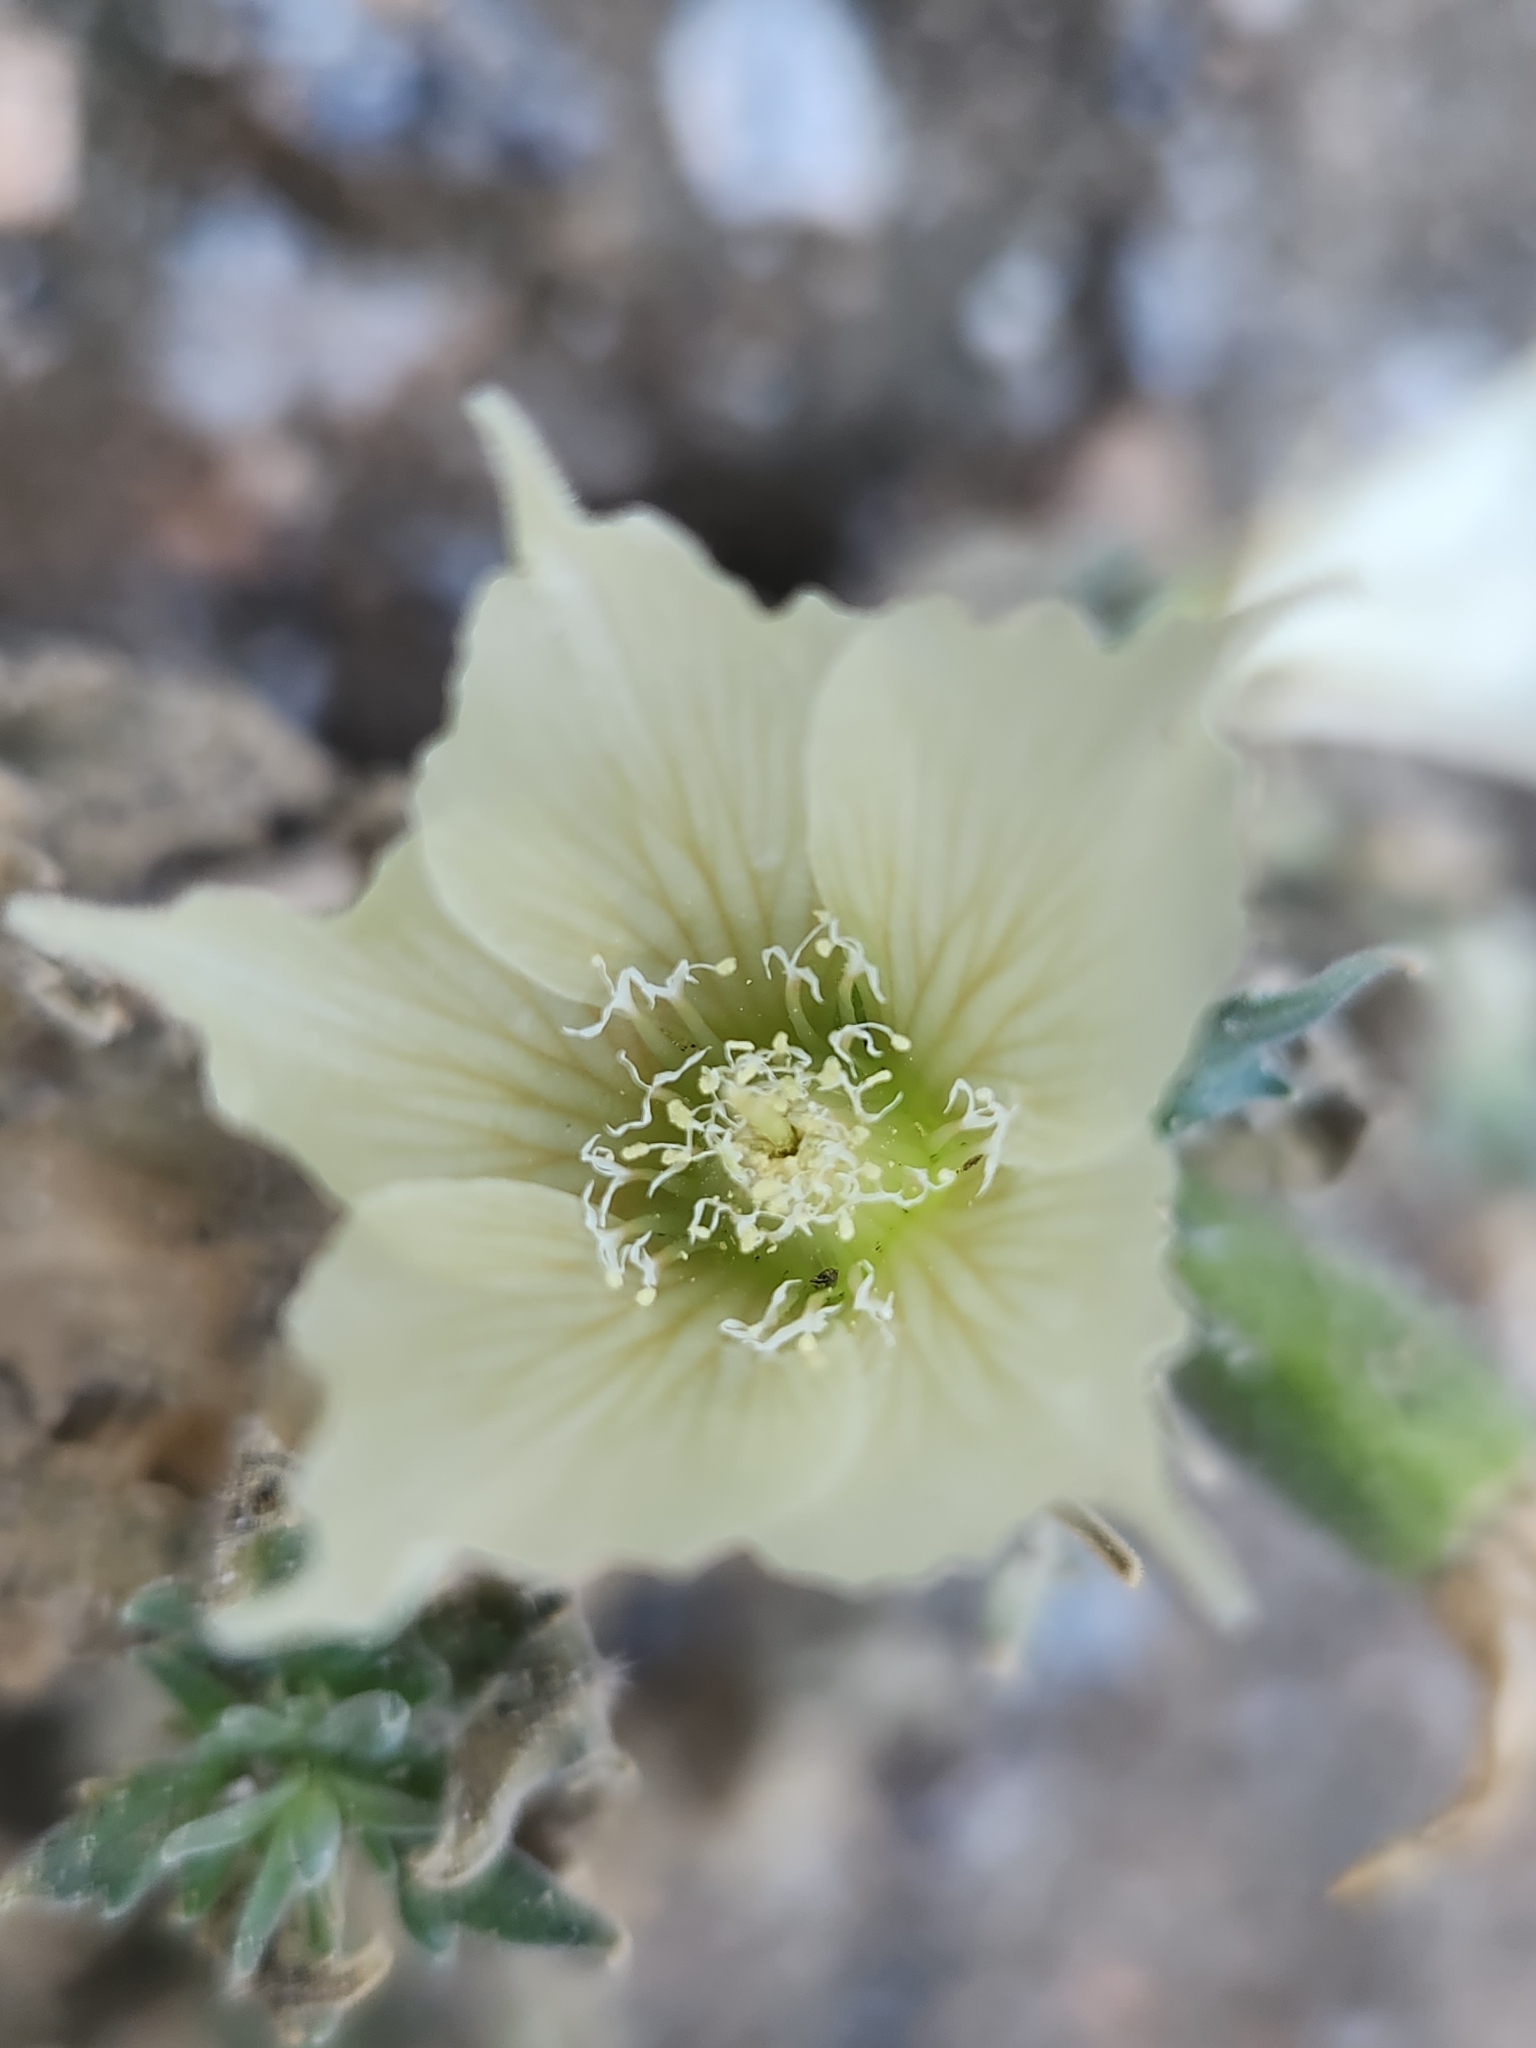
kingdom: Plantae
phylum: Tracheophyta
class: Magnoliopsida
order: Cornales
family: Loasaceae
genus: Mentzelia
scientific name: Mentzelia involucrata
